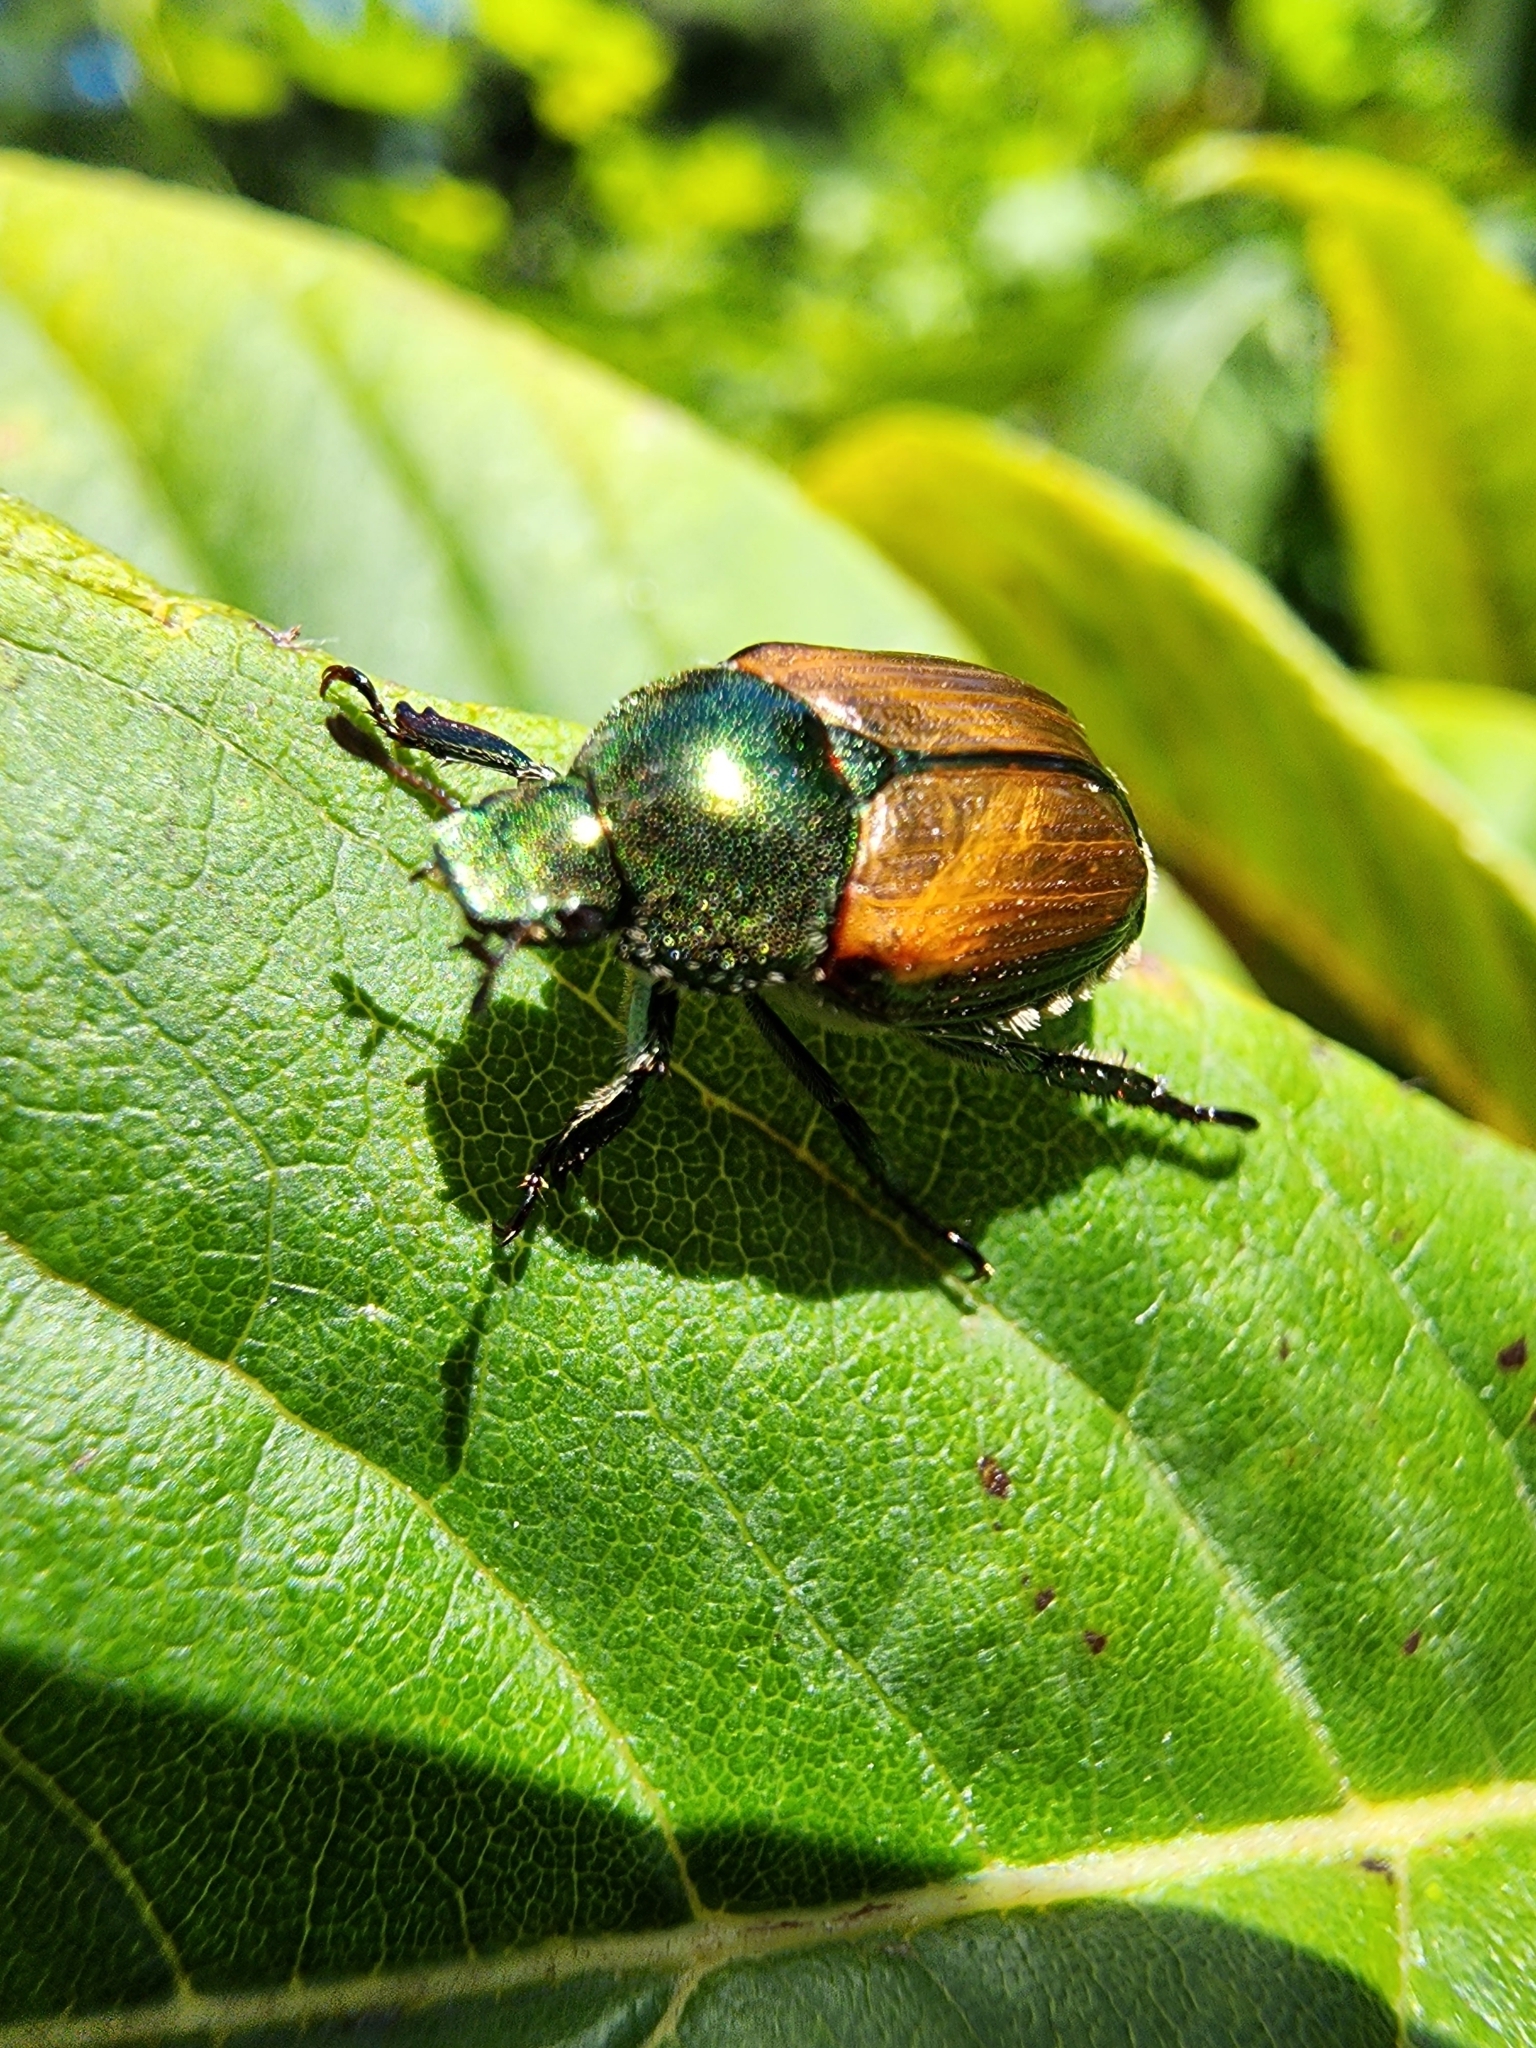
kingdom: Animalia
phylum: Arthropoda
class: Insecta
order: Coleoptera
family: Scarabaeidae
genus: Popillia
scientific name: Popillia japonica
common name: Japanese beetle
